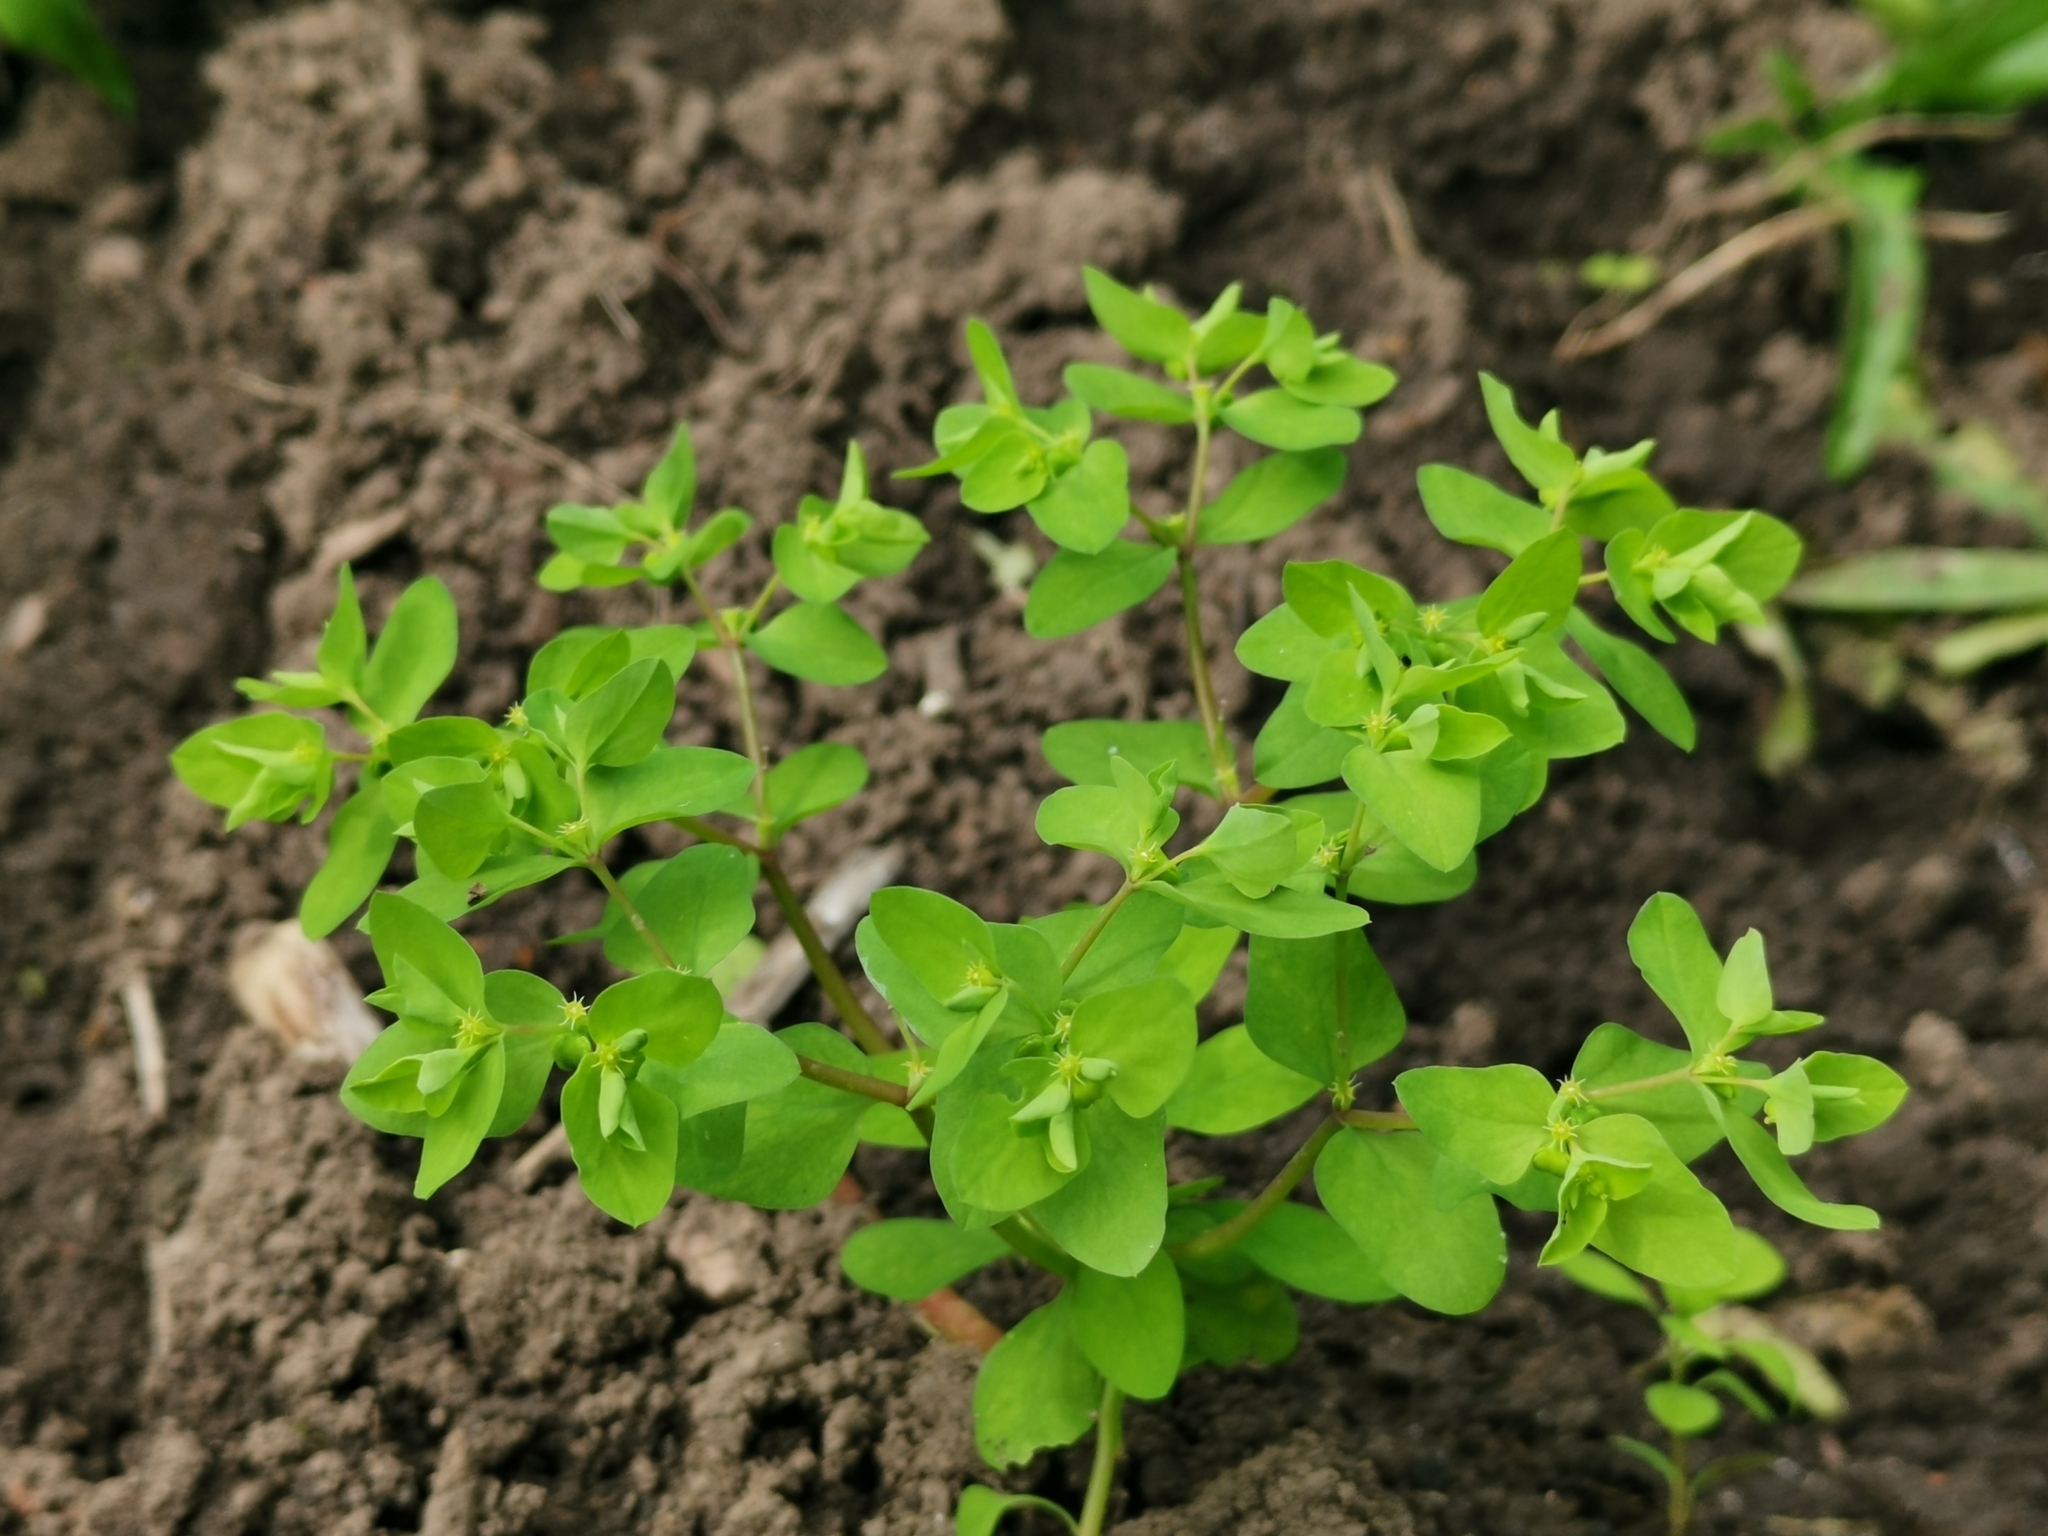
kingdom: Plantae
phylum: Tracheophyta
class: Magnoliopsida
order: Malpighiales
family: Euphorbiaceae
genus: Euphorbia
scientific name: Euphorbia peplus
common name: Petty spurge
